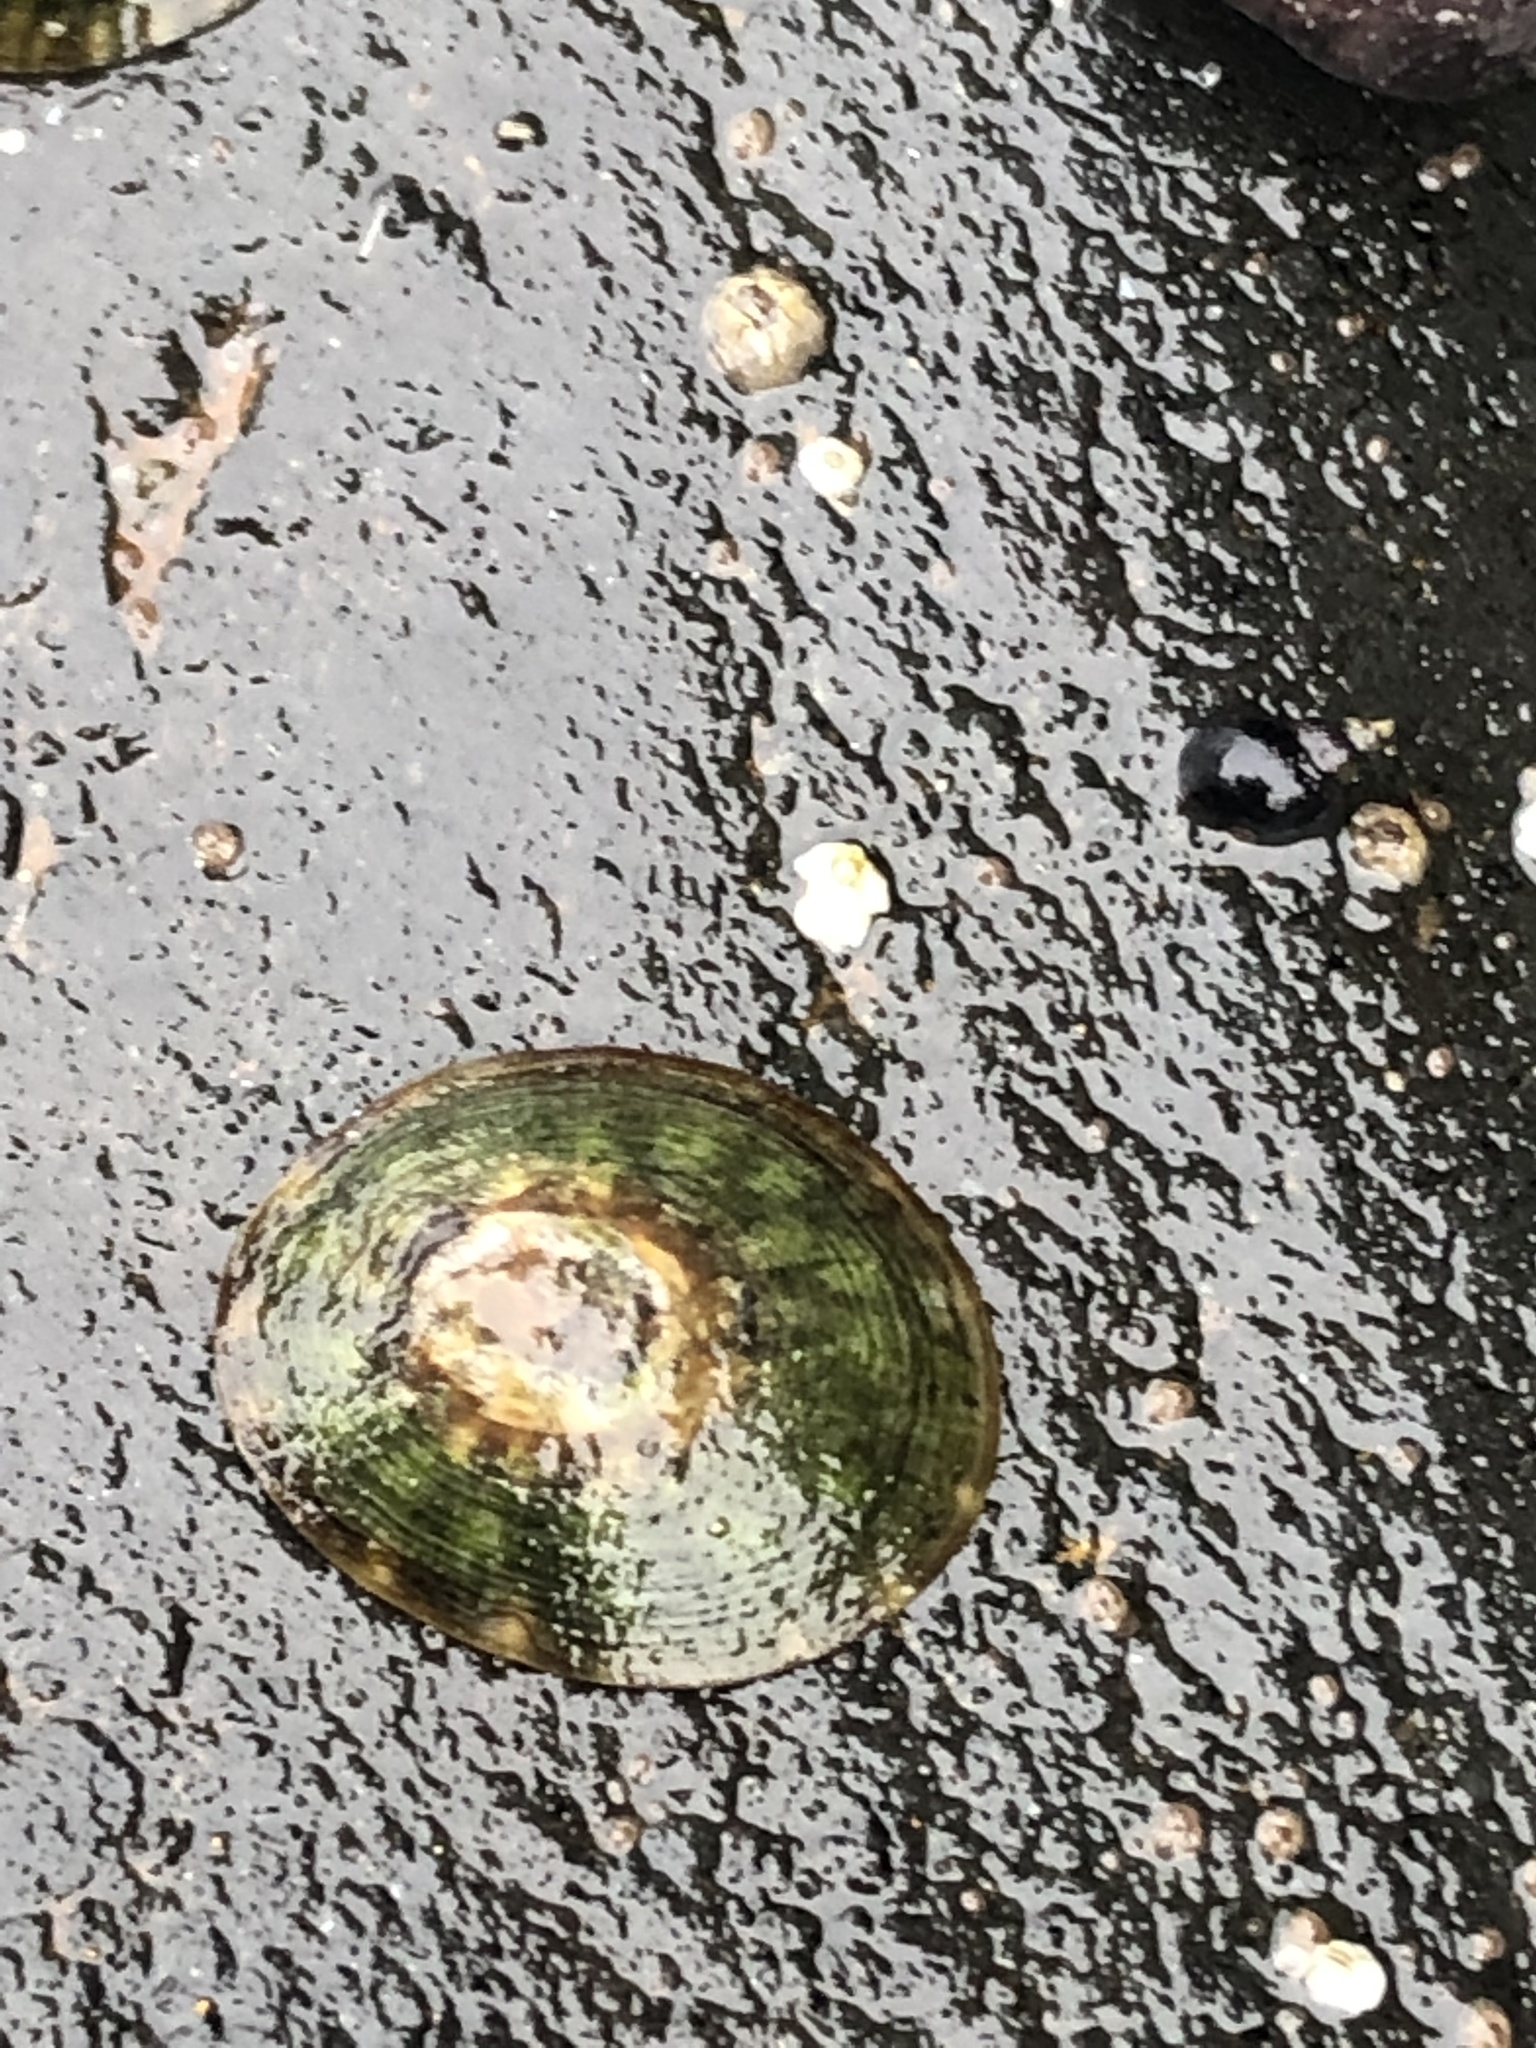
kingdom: Animalia
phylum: Mollusca
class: Gastropoda
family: Lottiidae
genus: Lottia
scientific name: Lottia scutum
